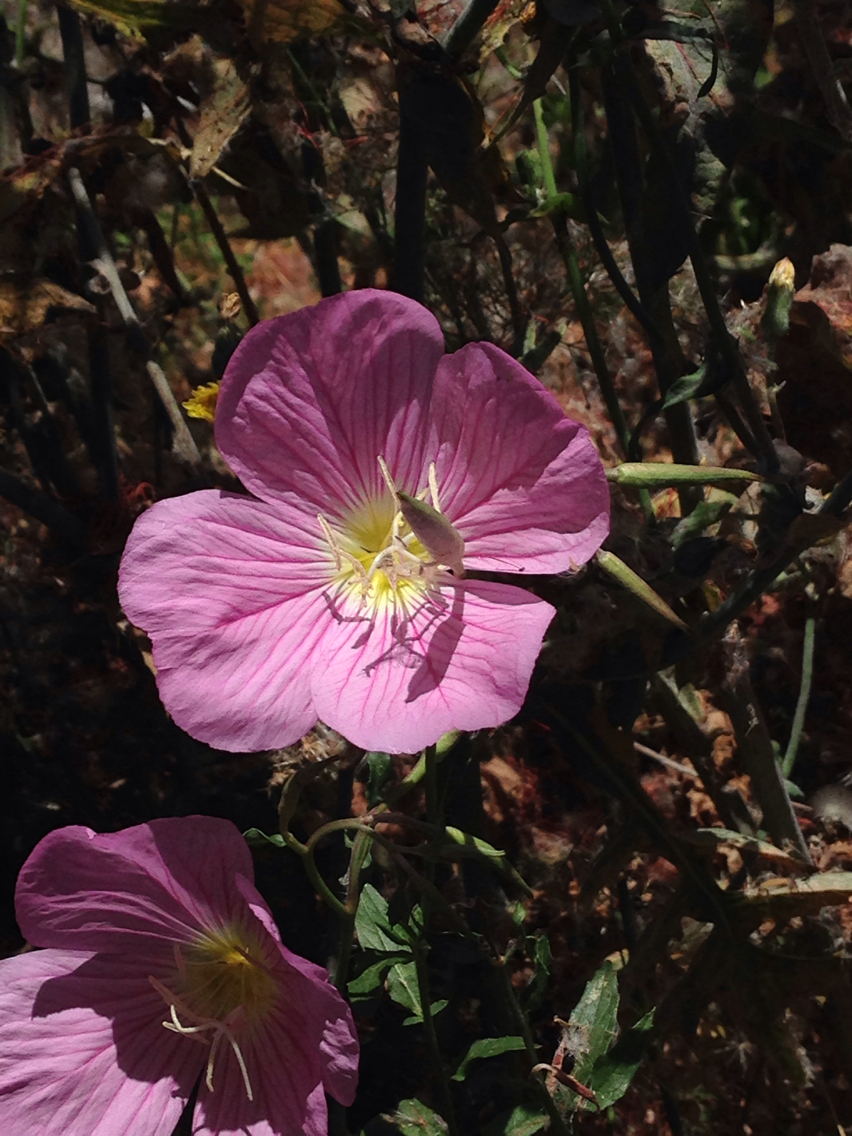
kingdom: Plantae
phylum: Tracheophyta
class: Magnoliopsida
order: Myrtales
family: Onagraceae
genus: Oenothera
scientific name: Oenothera speciosa
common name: White evening-primrose
